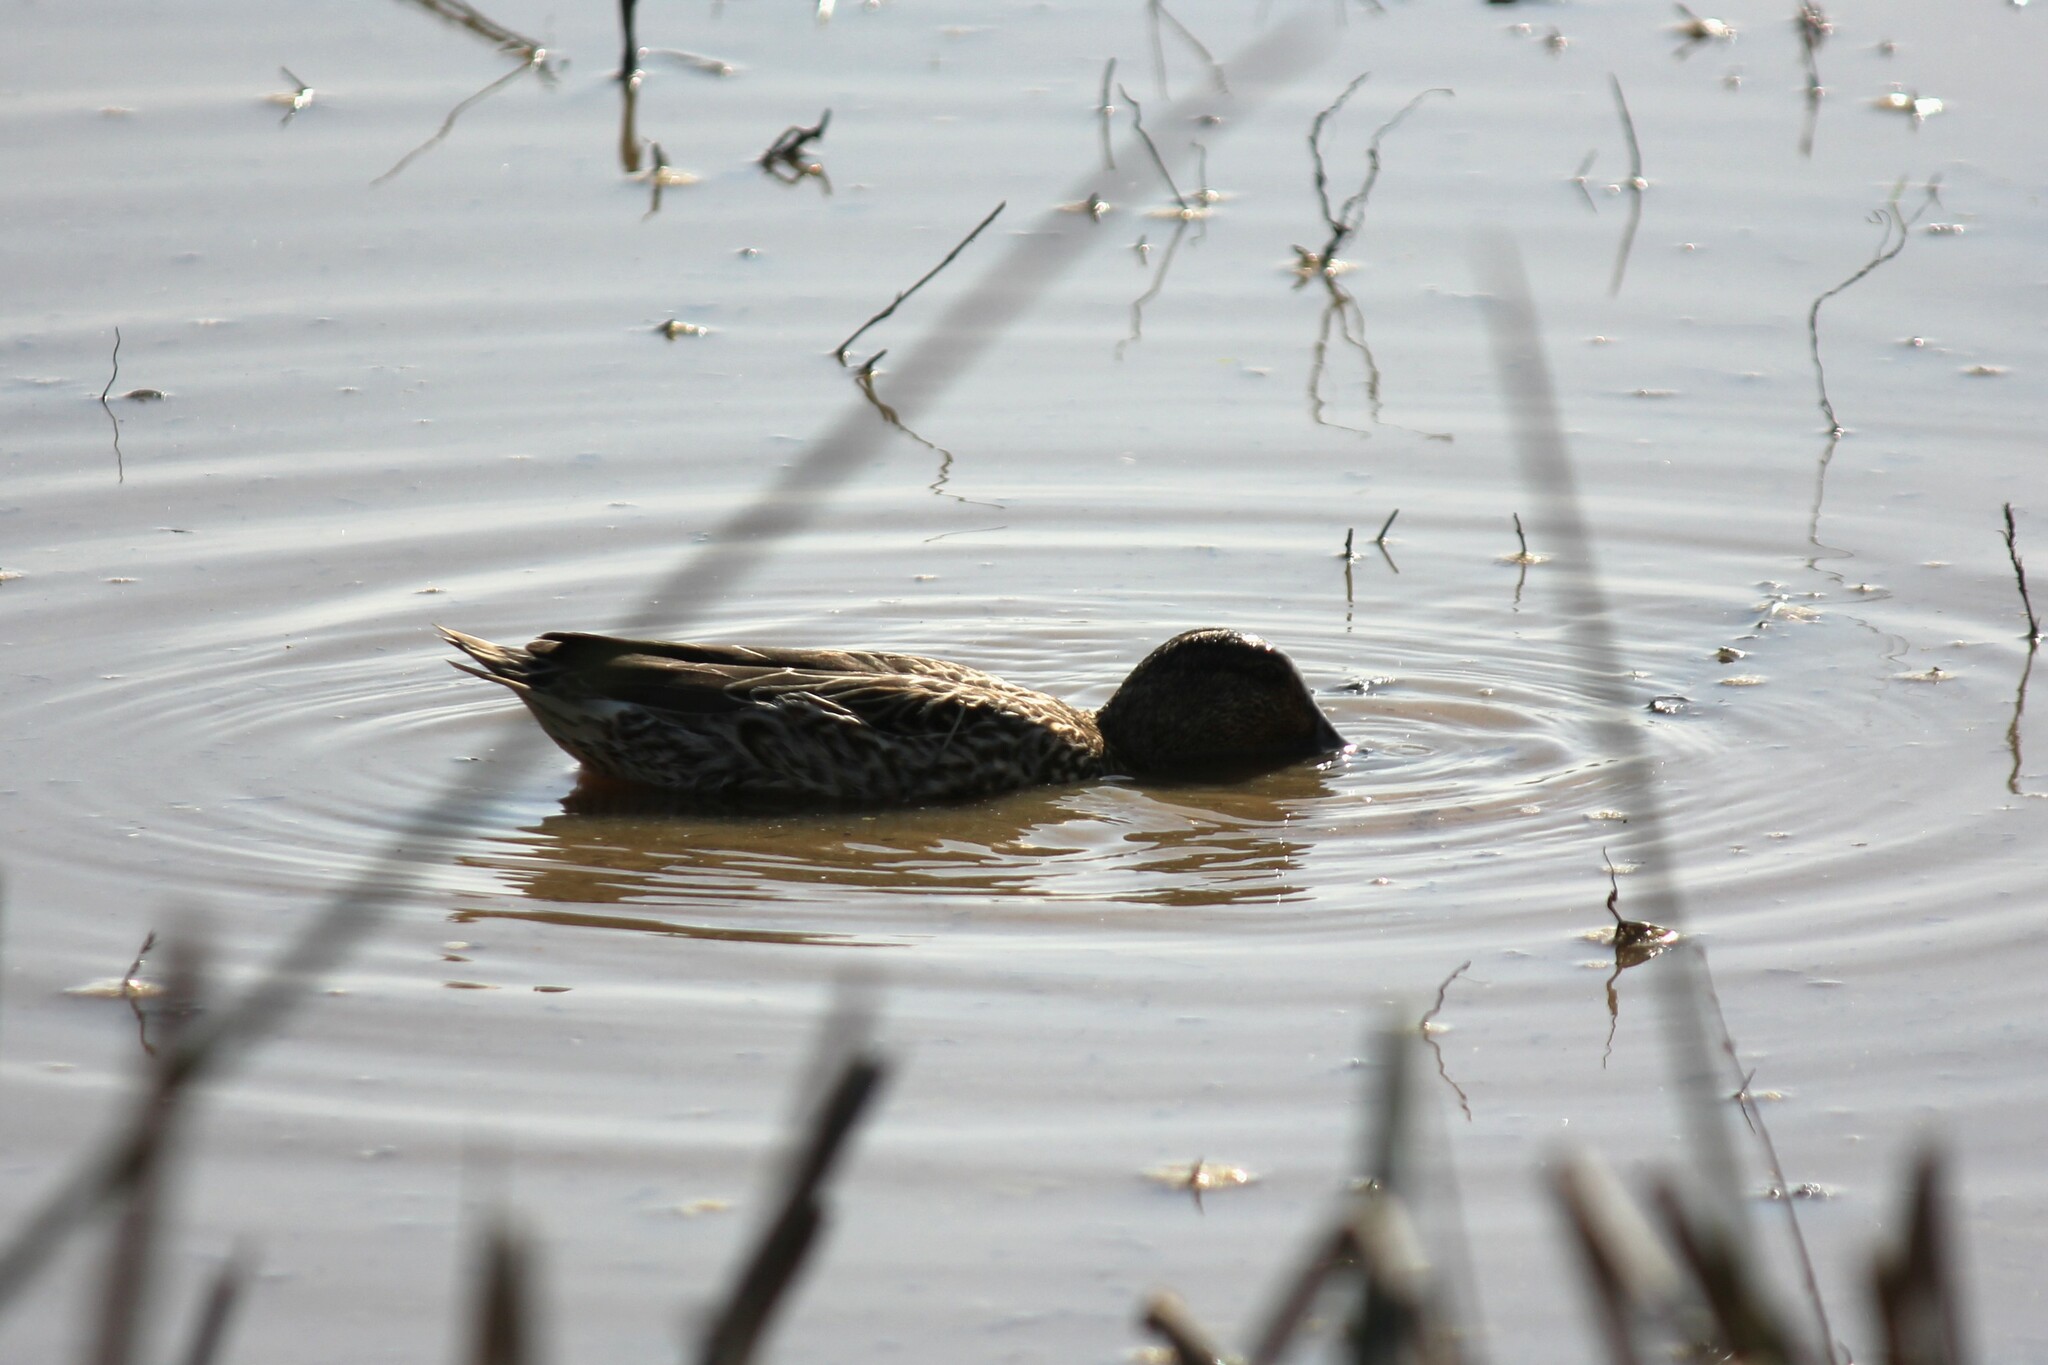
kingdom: Animalia
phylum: Chordata
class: Aves
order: Anseriformes
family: Anatidae
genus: Anas
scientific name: Anas crecca
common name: Eurasian teal
